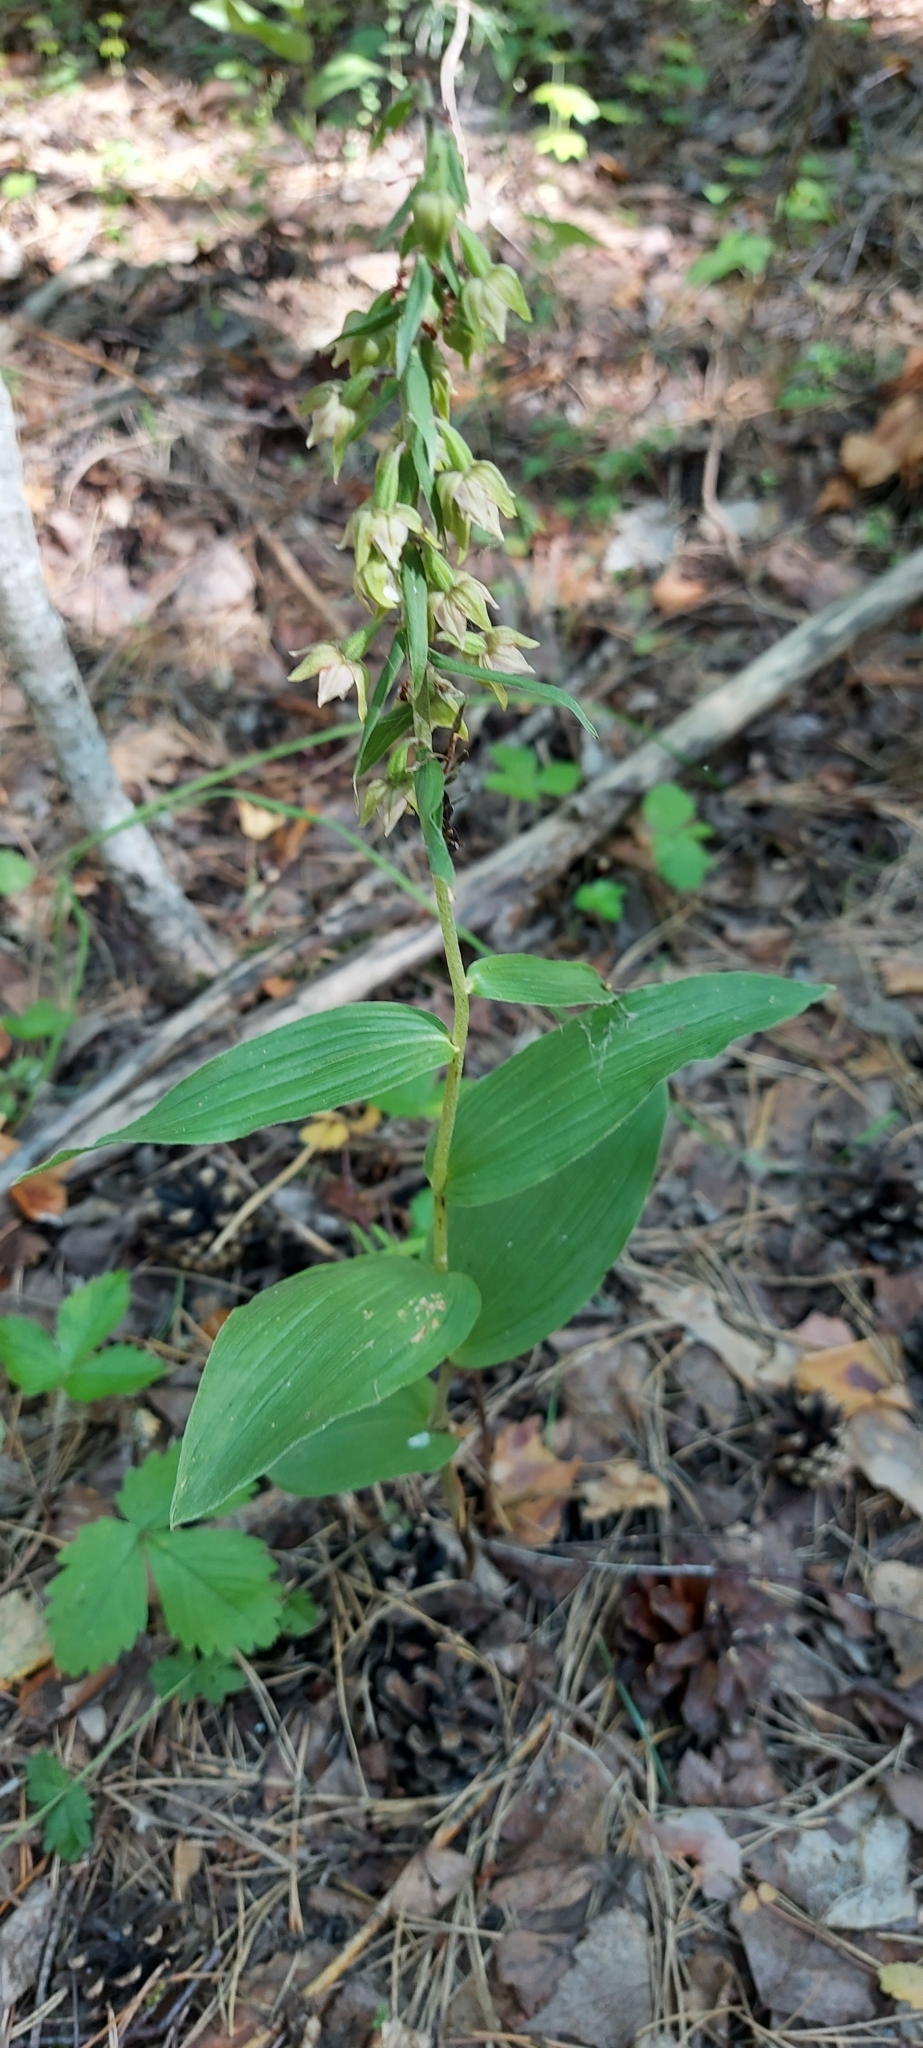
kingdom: Plantae
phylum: Tracheophyta
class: Liliopsida
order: Asparagales
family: Orchidaceae
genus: Epipactis
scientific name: Epipactis helleborine
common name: Broad-leaved helleborine
